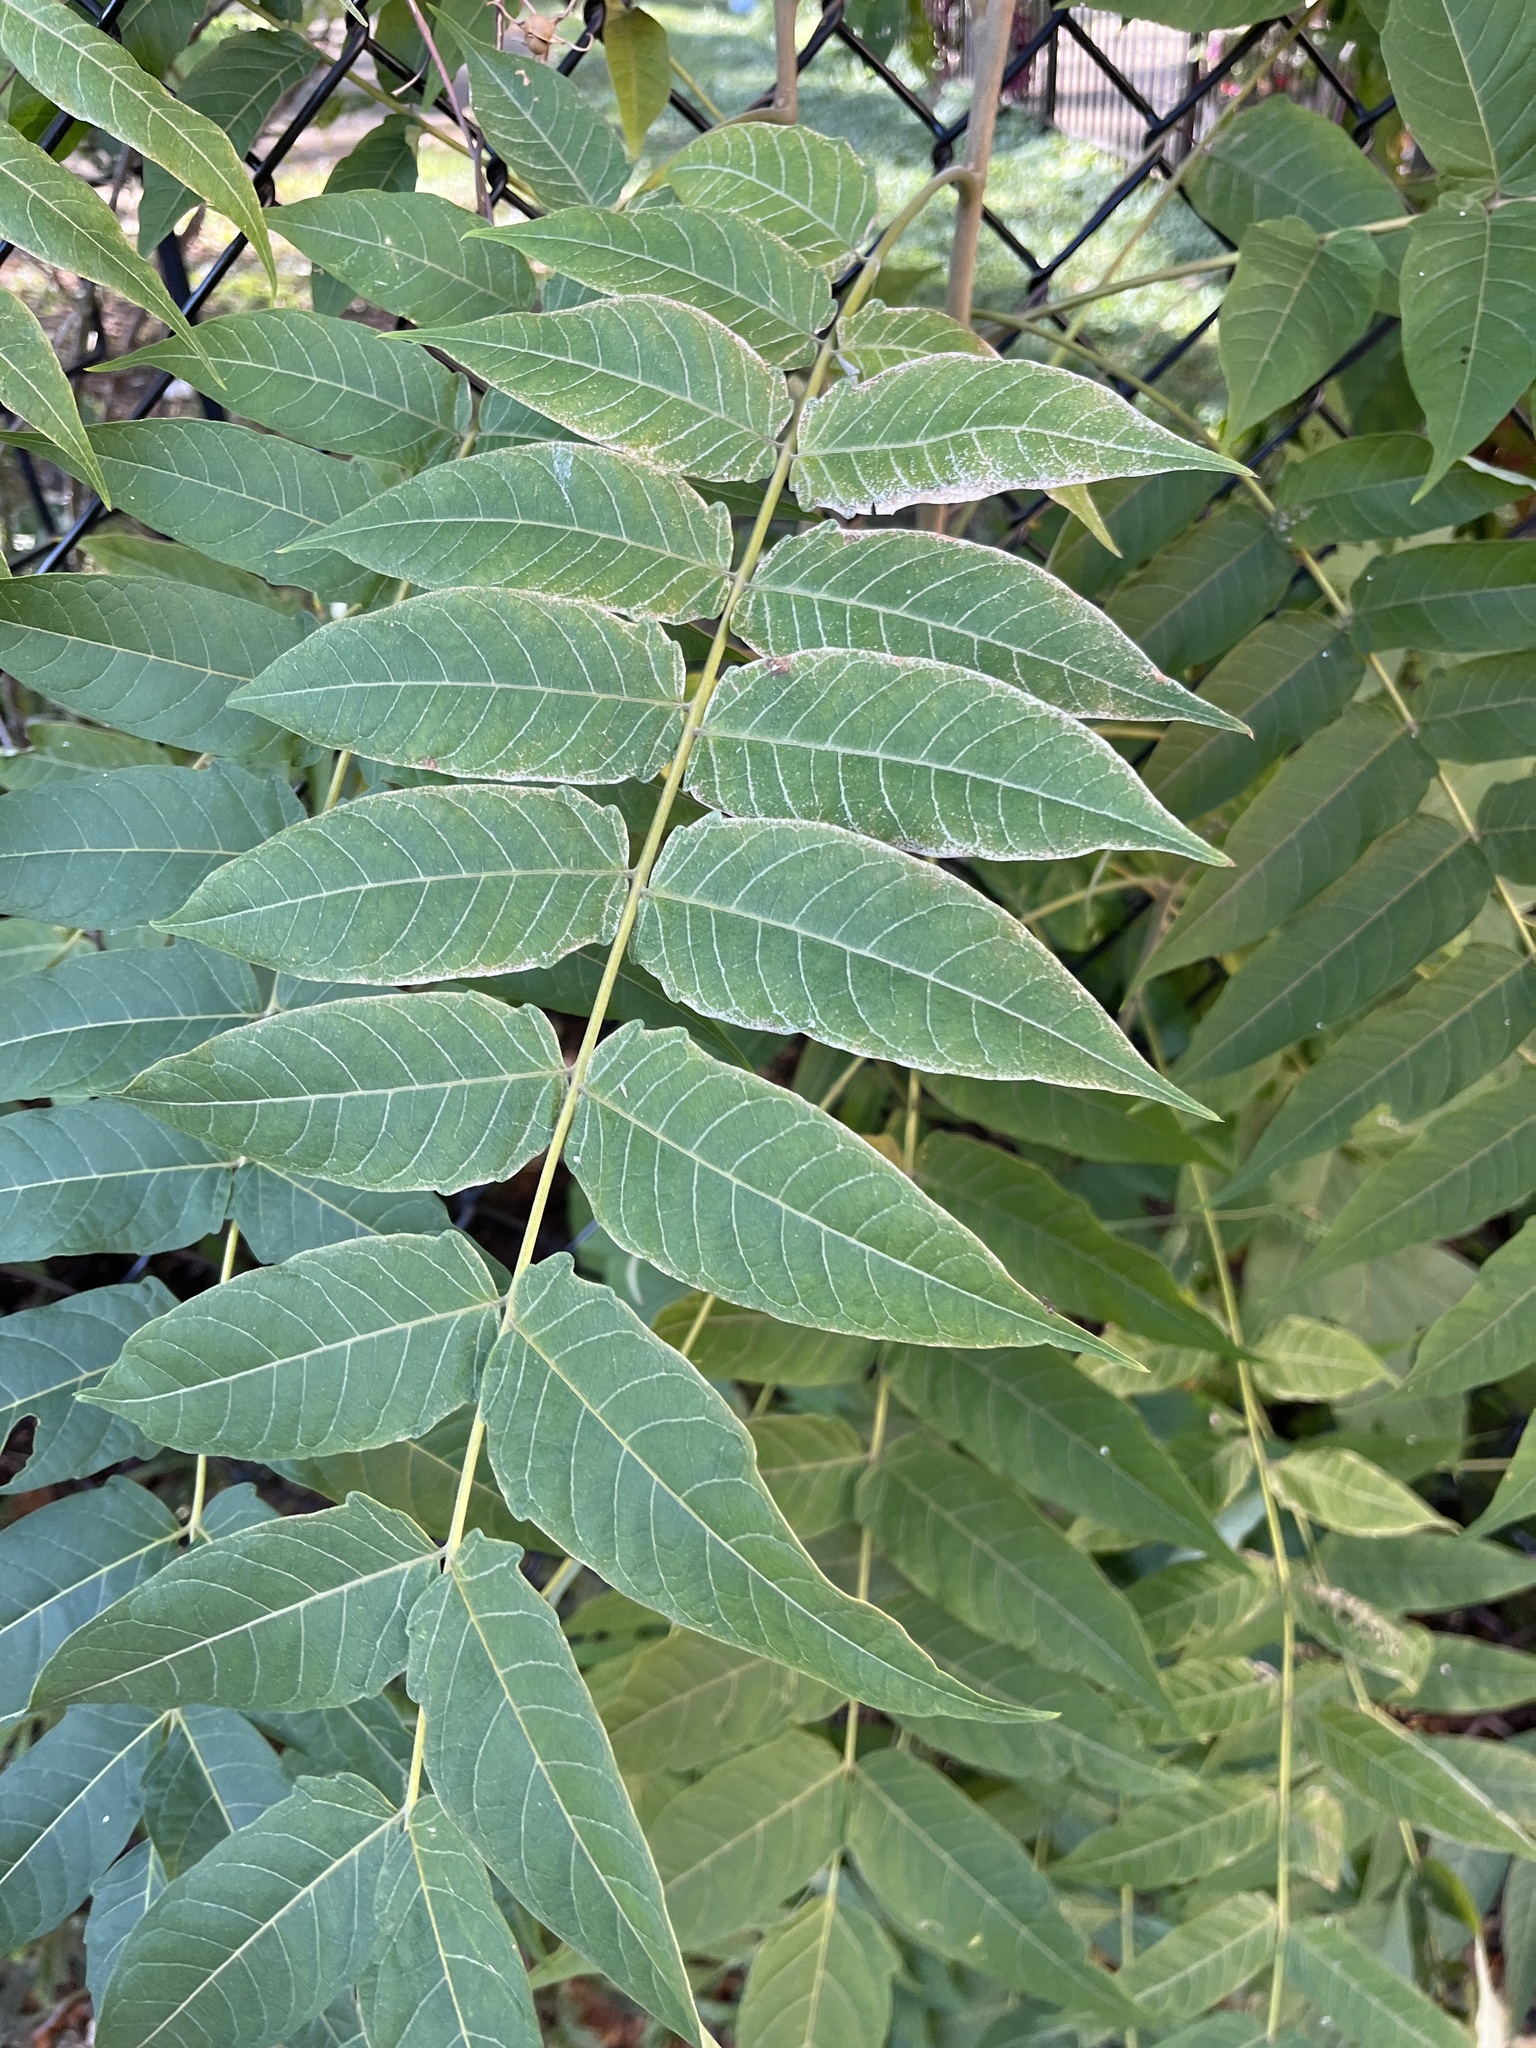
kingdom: Plantae
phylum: Tracheophyta
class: Magnoliopsida
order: Sapindales
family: Simaroubaceae
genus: Ailanthus
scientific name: Ailanthus altissima
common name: Tree-of-heaven
